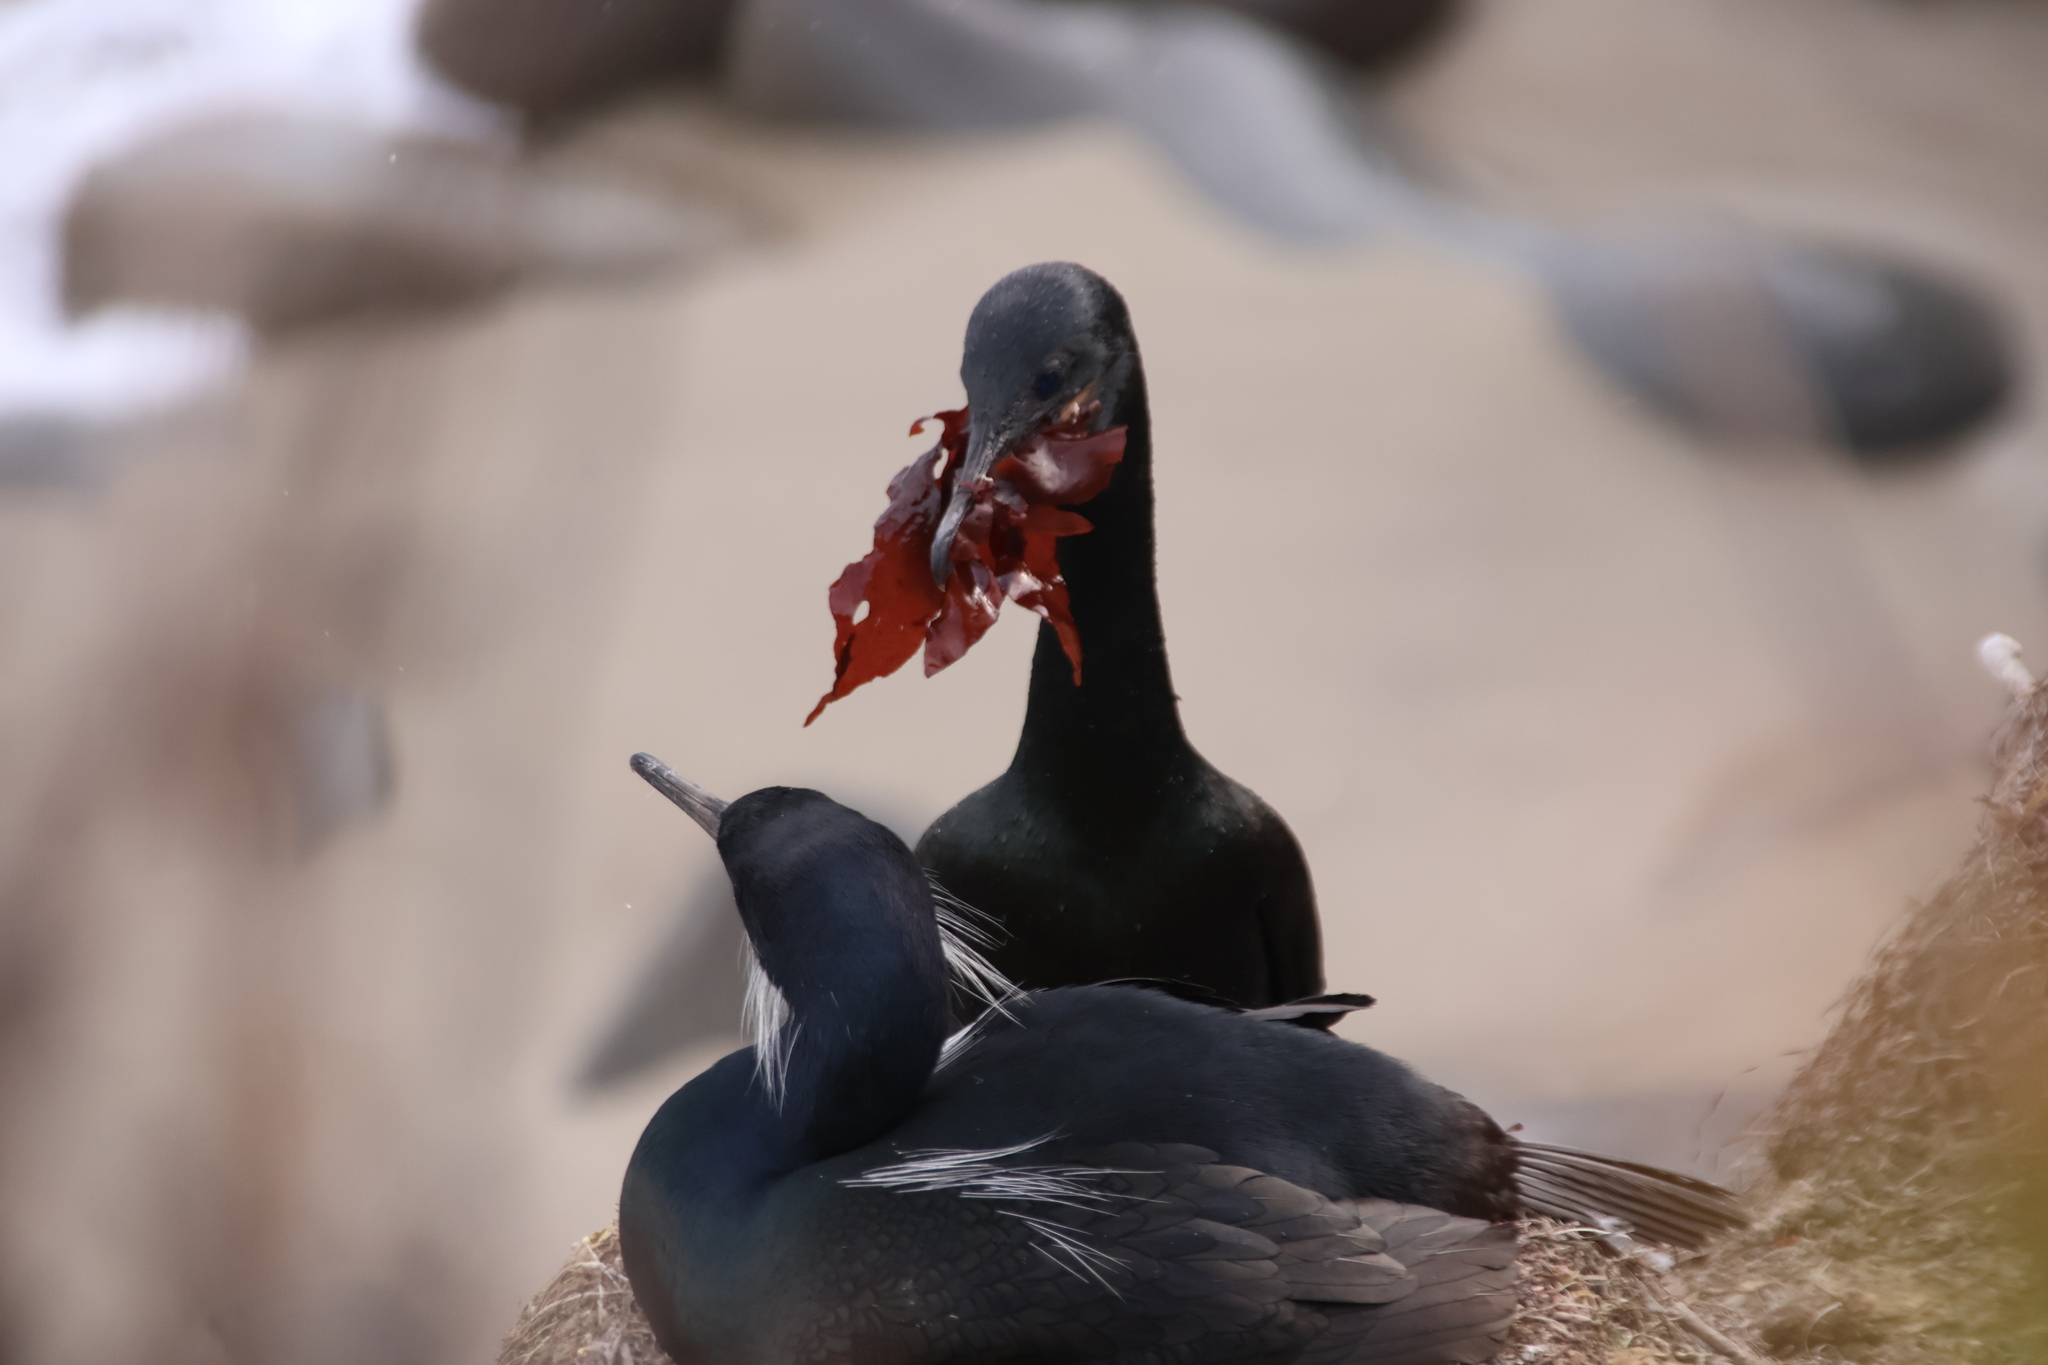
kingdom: Animalia
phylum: Chordata
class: Aves
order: Suliformes
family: Phalacrocoracidae
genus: Urile
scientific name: Urile penicillatus
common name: Brandt's cormorant
